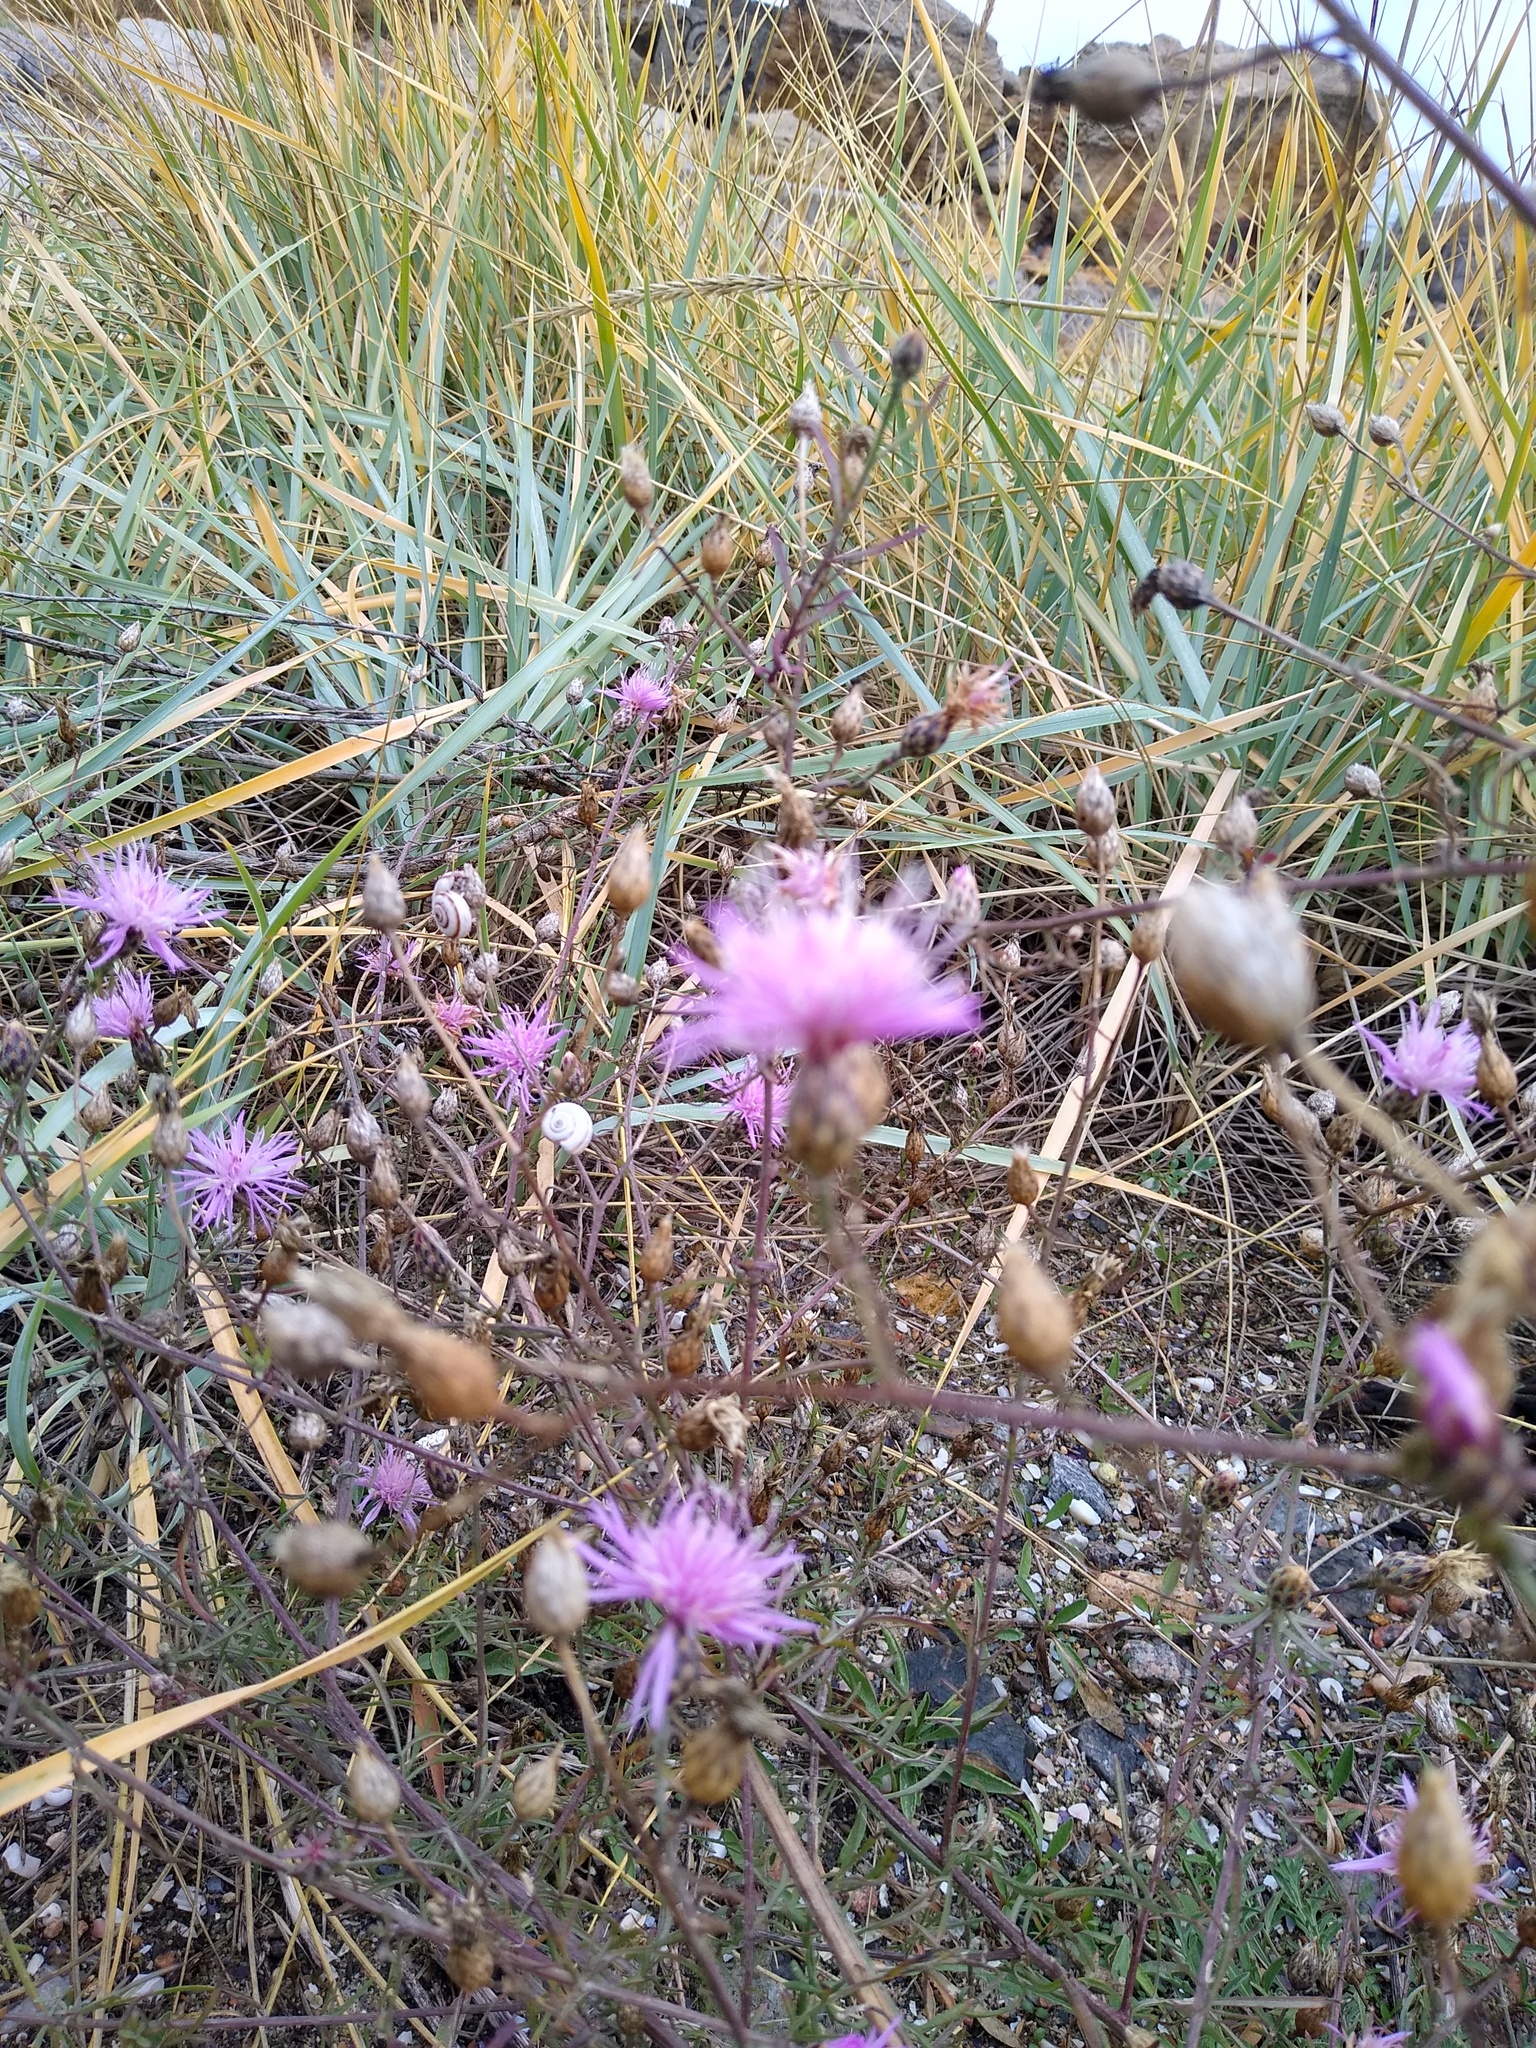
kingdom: Plantae
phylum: Tracheophyta
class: Magnoliopsida
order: Asterales
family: Asteraceae
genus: Centaurea
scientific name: Centaurea odessana
